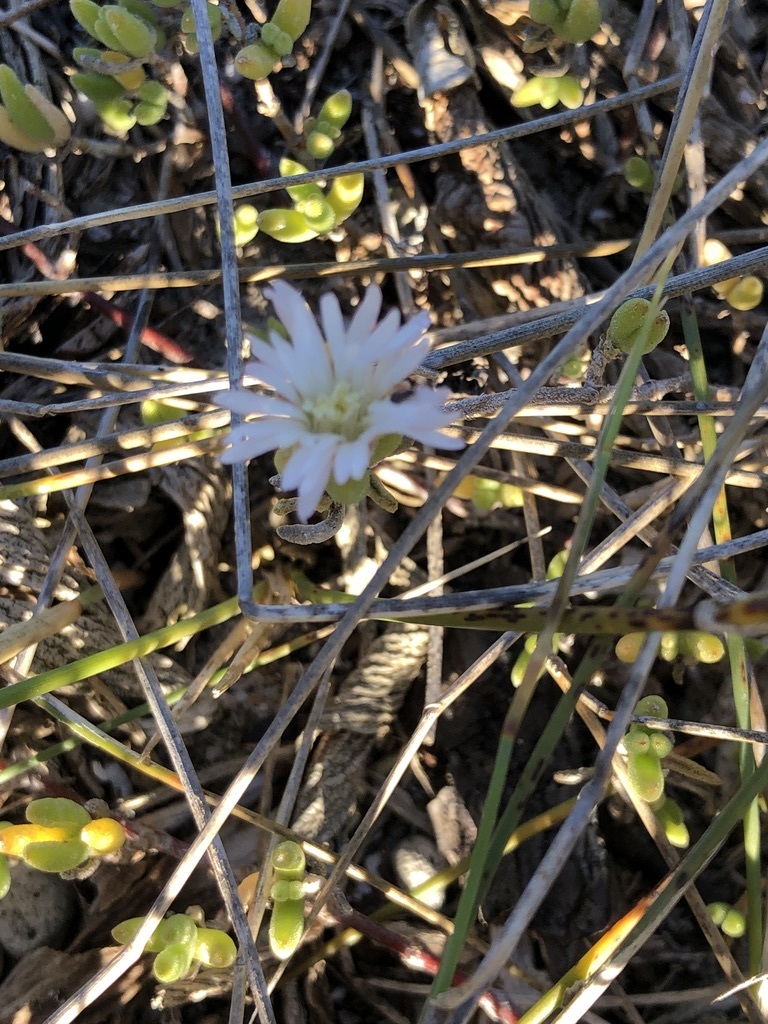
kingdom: Plantae
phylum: Tracheophyta
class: Magnoliopsida
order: Caryophyllales
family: Aizoaceae
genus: Drosanthemum
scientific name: Drosanthemum candens
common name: Rodondo-creeper
